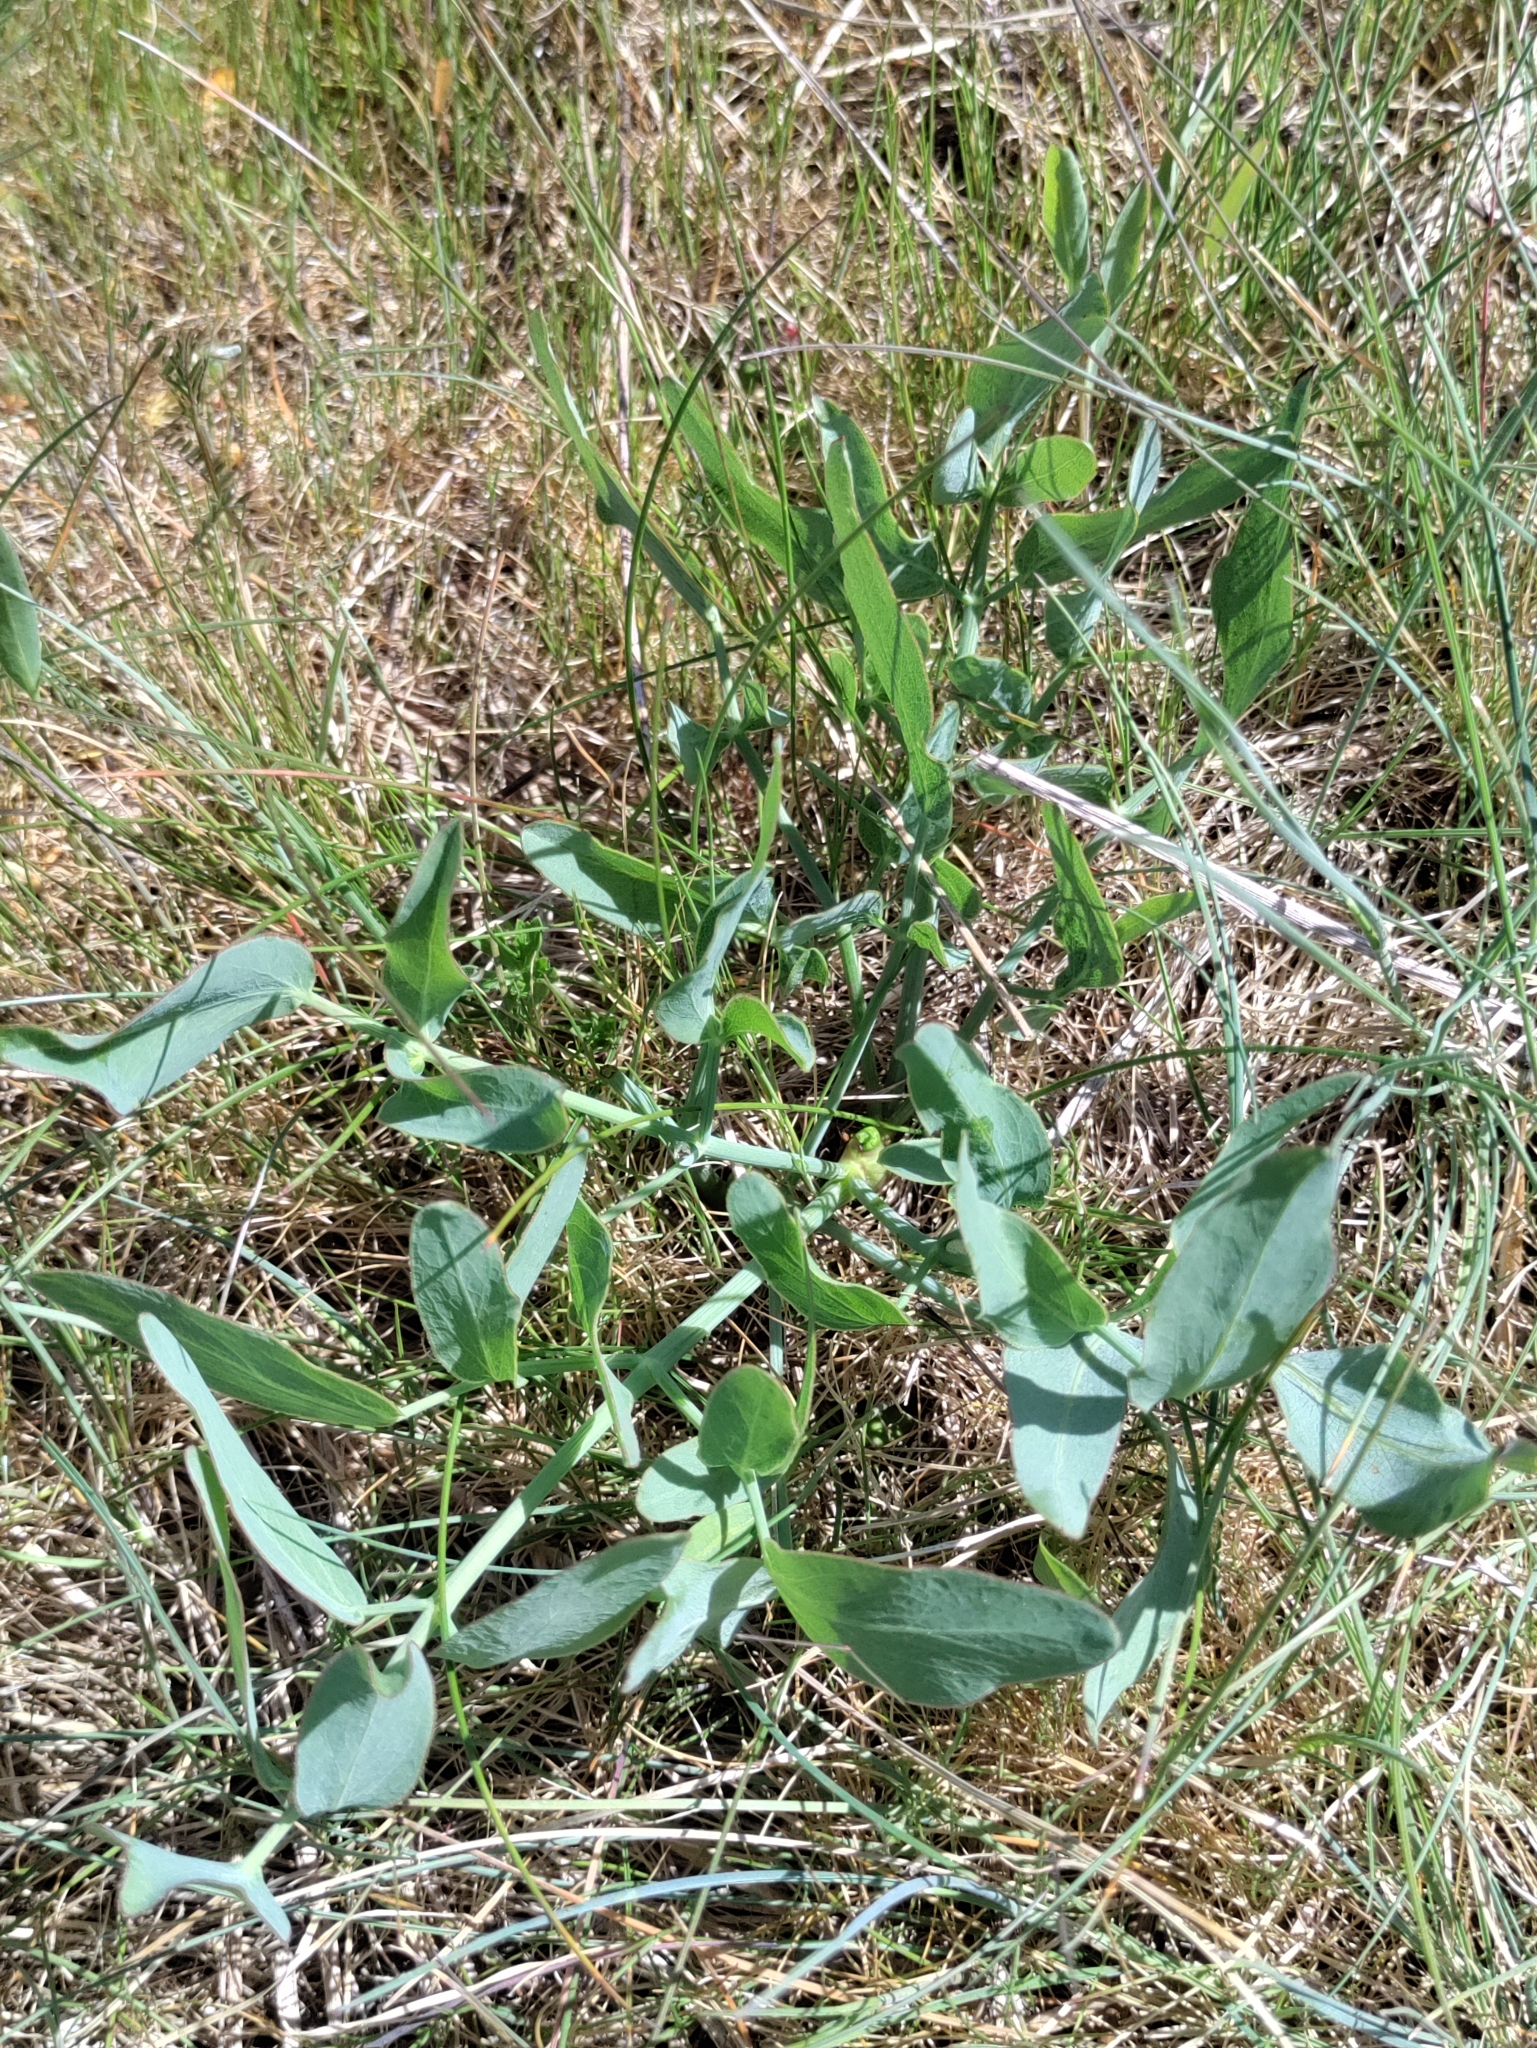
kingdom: Plantae
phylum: Tracheophyta
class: Magnoliopsida
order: Apiales
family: Apiaceae
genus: Lomatium
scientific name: Lomatium nudicaule
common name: Pestle lomatium
